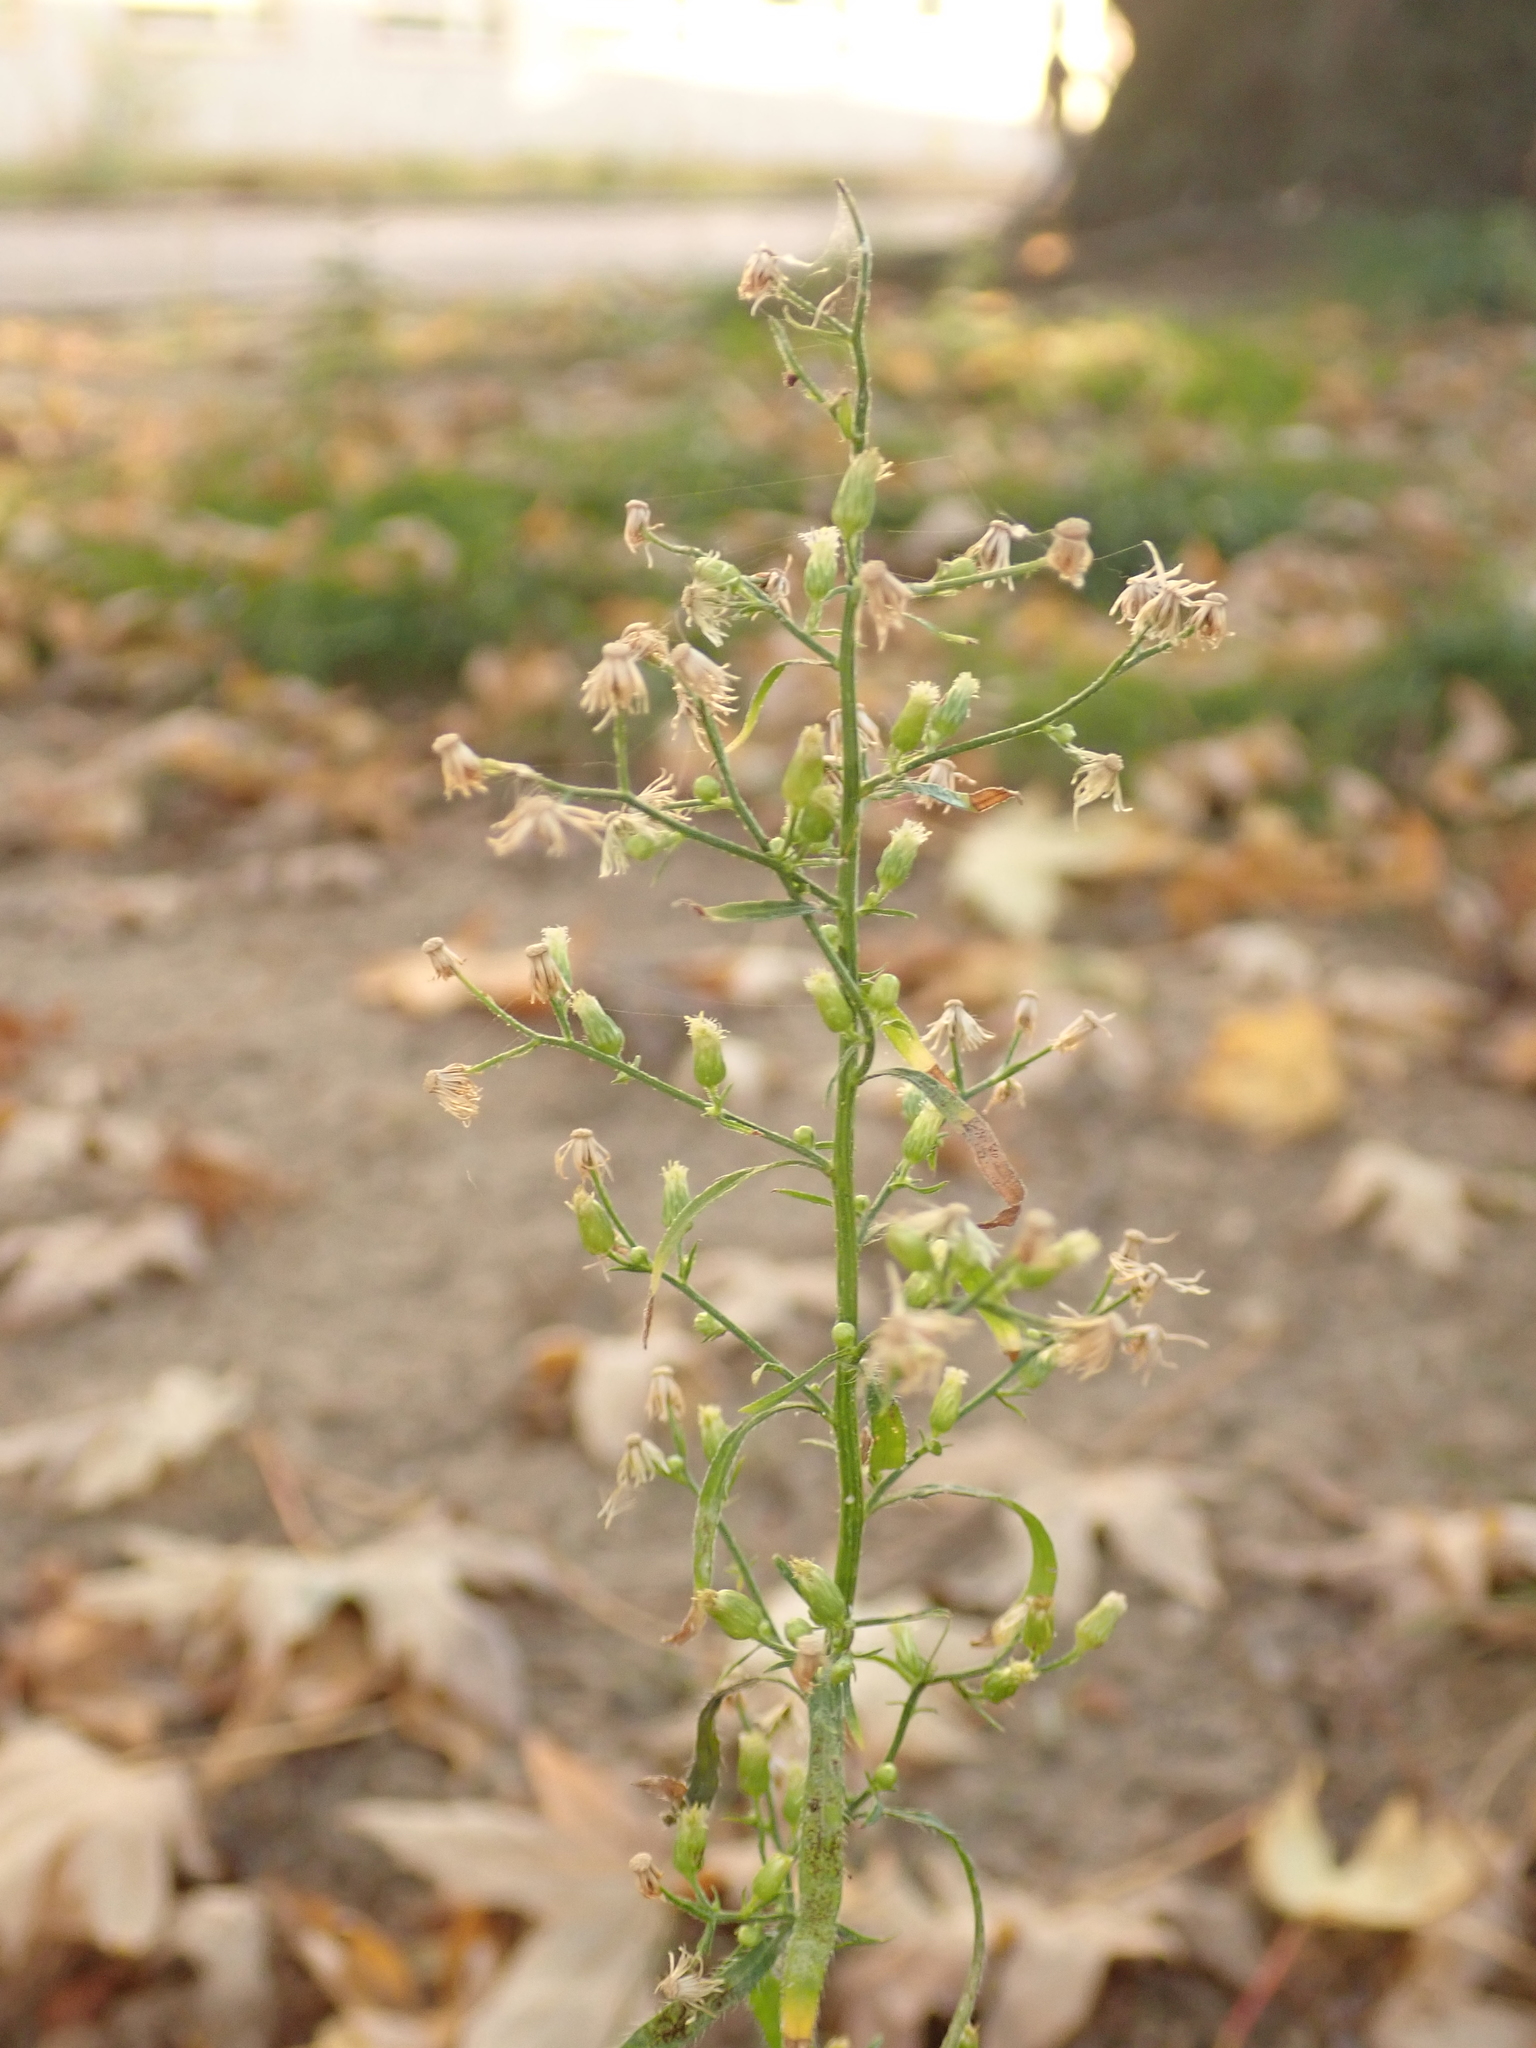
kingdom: Plantae
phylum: Tracheophyta
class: Magnoliopsida
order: Asterales
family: Asteraceae
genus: Erigeron
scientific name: Erigeron canadensis
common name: Canadian fleabane
